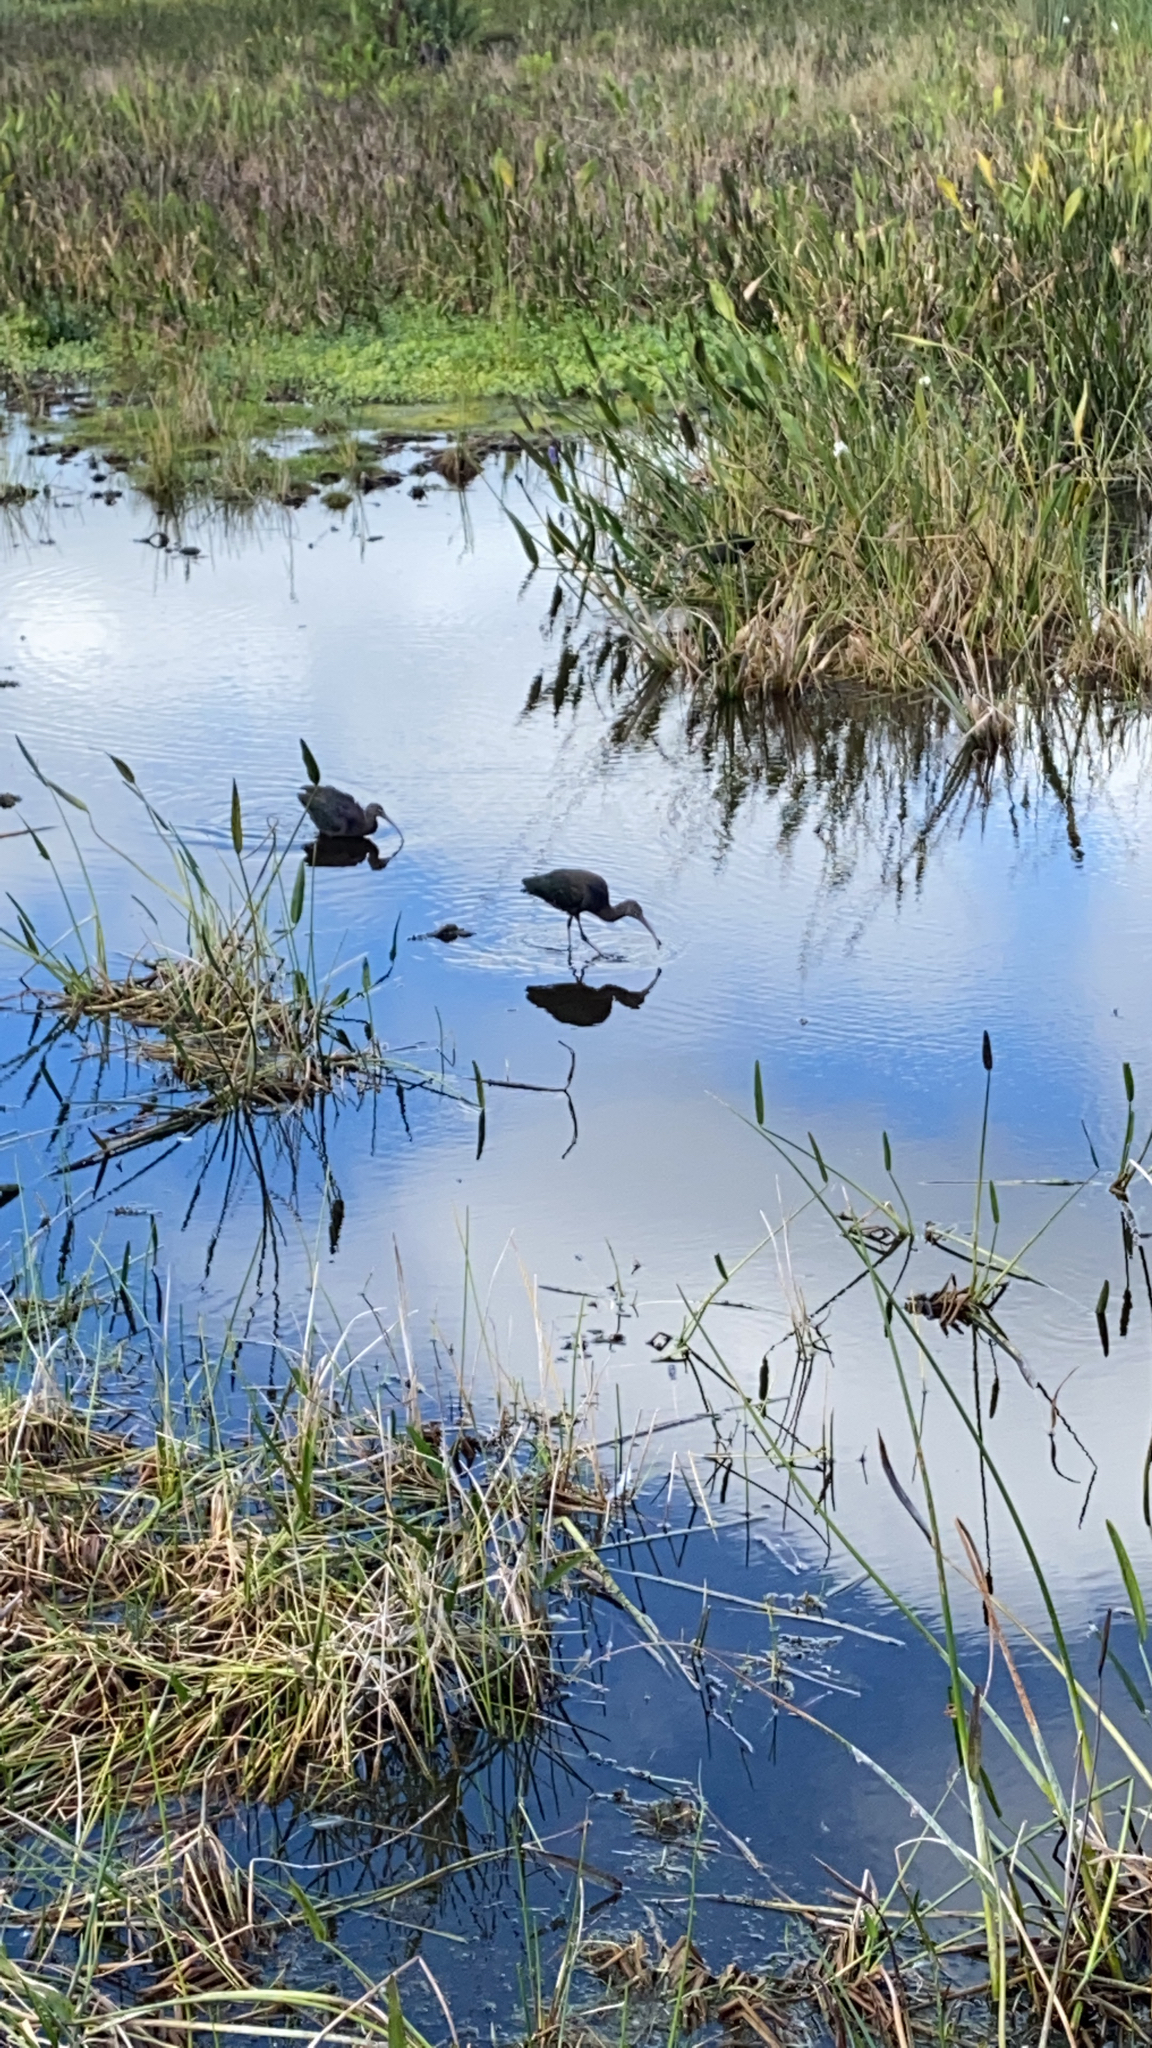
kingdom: Animalia
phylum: Chordata
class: Aves
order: Pelecaniformes
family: Threskiornithidae
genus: Plegadis
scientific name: Plegadis falcinellus
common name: Glossy ibis
